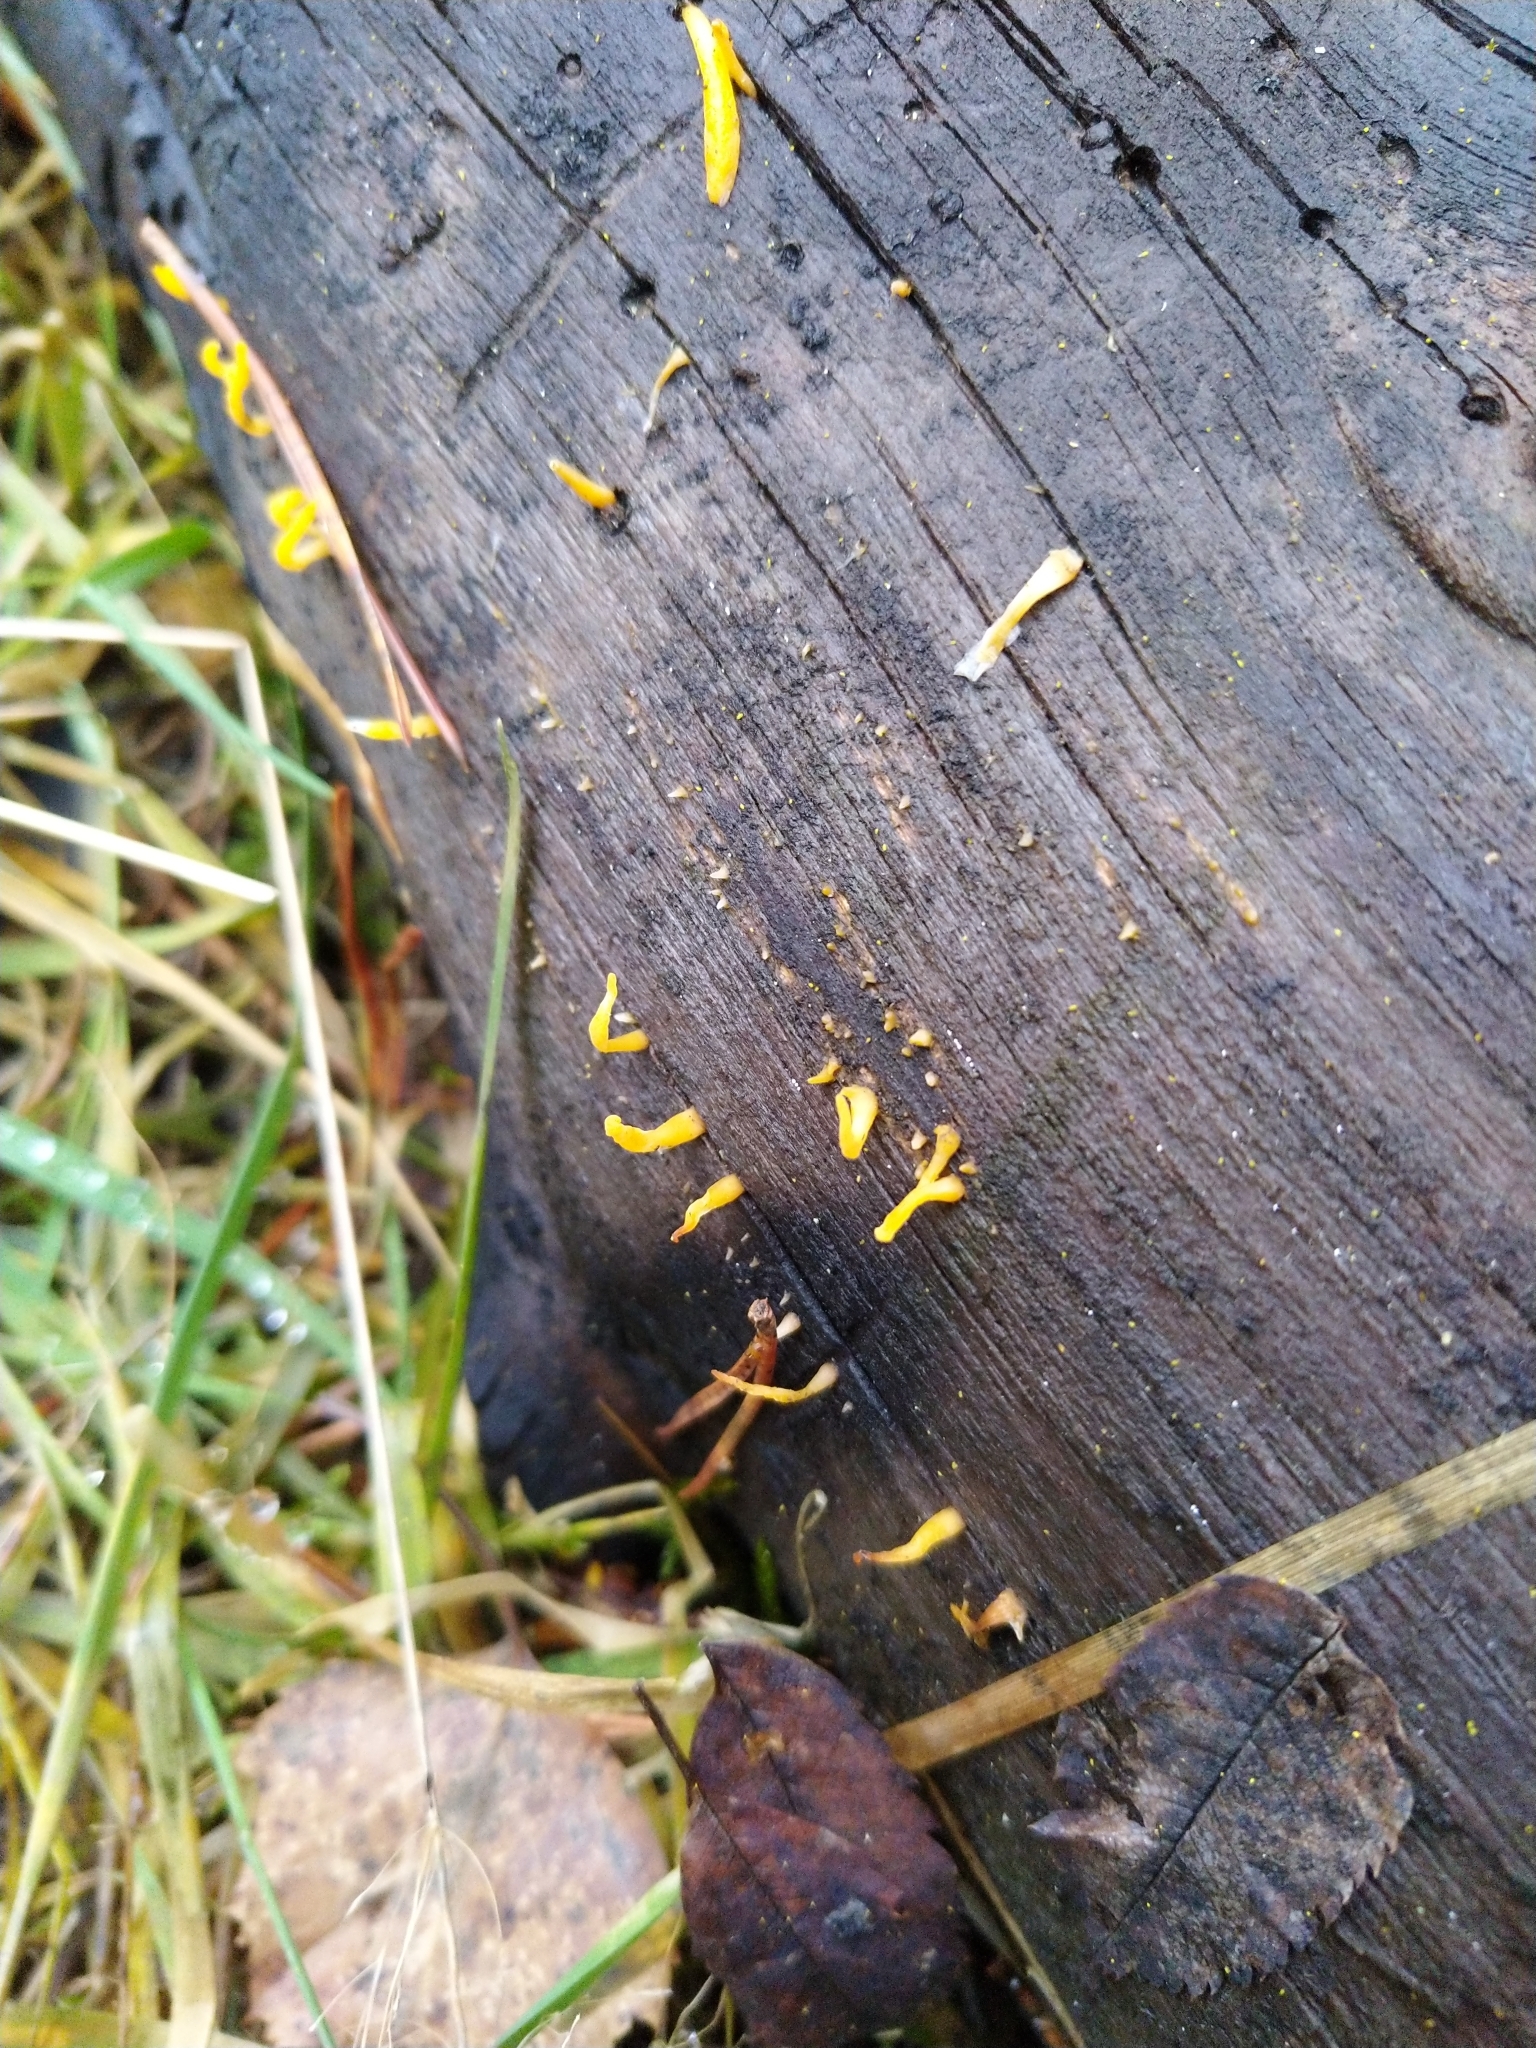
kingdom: Fungi
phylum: Basidiomycota
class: Dacrymycetes
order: Dacrymycetales
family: Dacrymycetaceae
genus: Calocera
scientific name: Calocera cornea
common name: Small stagshorn
